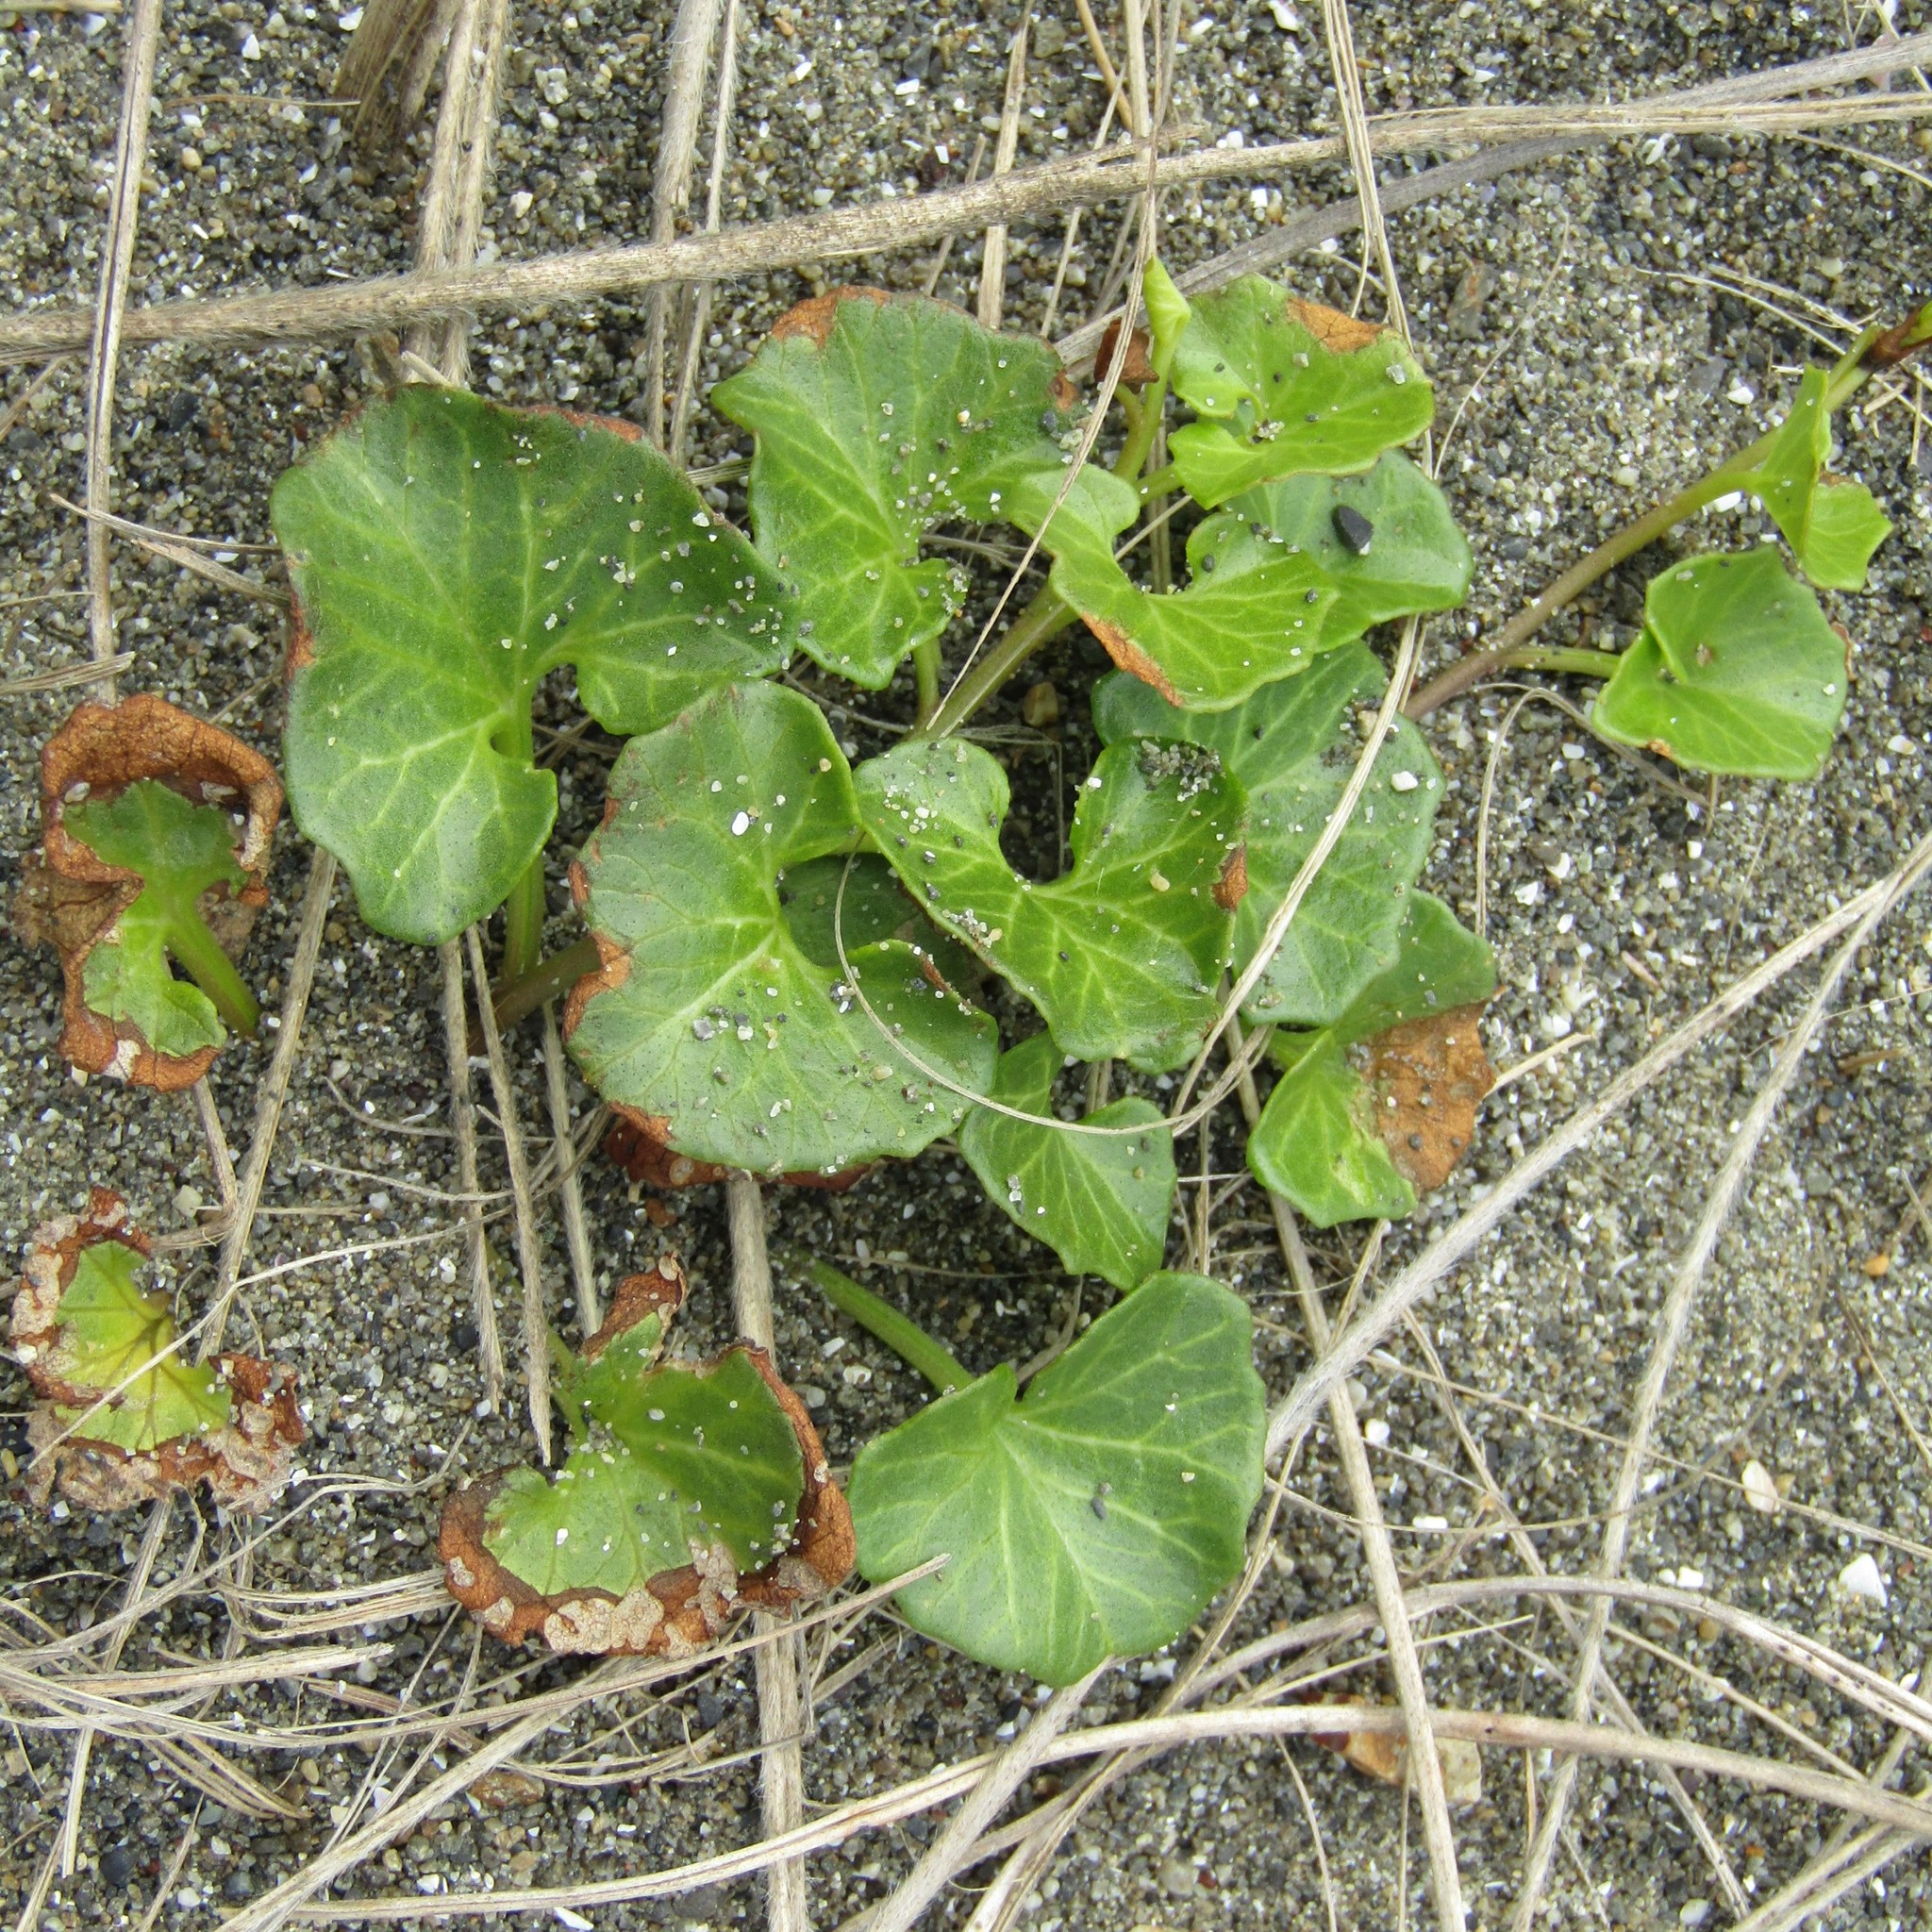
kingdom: Plantae
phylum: Tracheophyta
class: Magnoliopsida
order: Solanales
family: Convolvulaceae
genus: Calystegia
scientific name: Calystegia soldanella
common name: Sea bindweed
